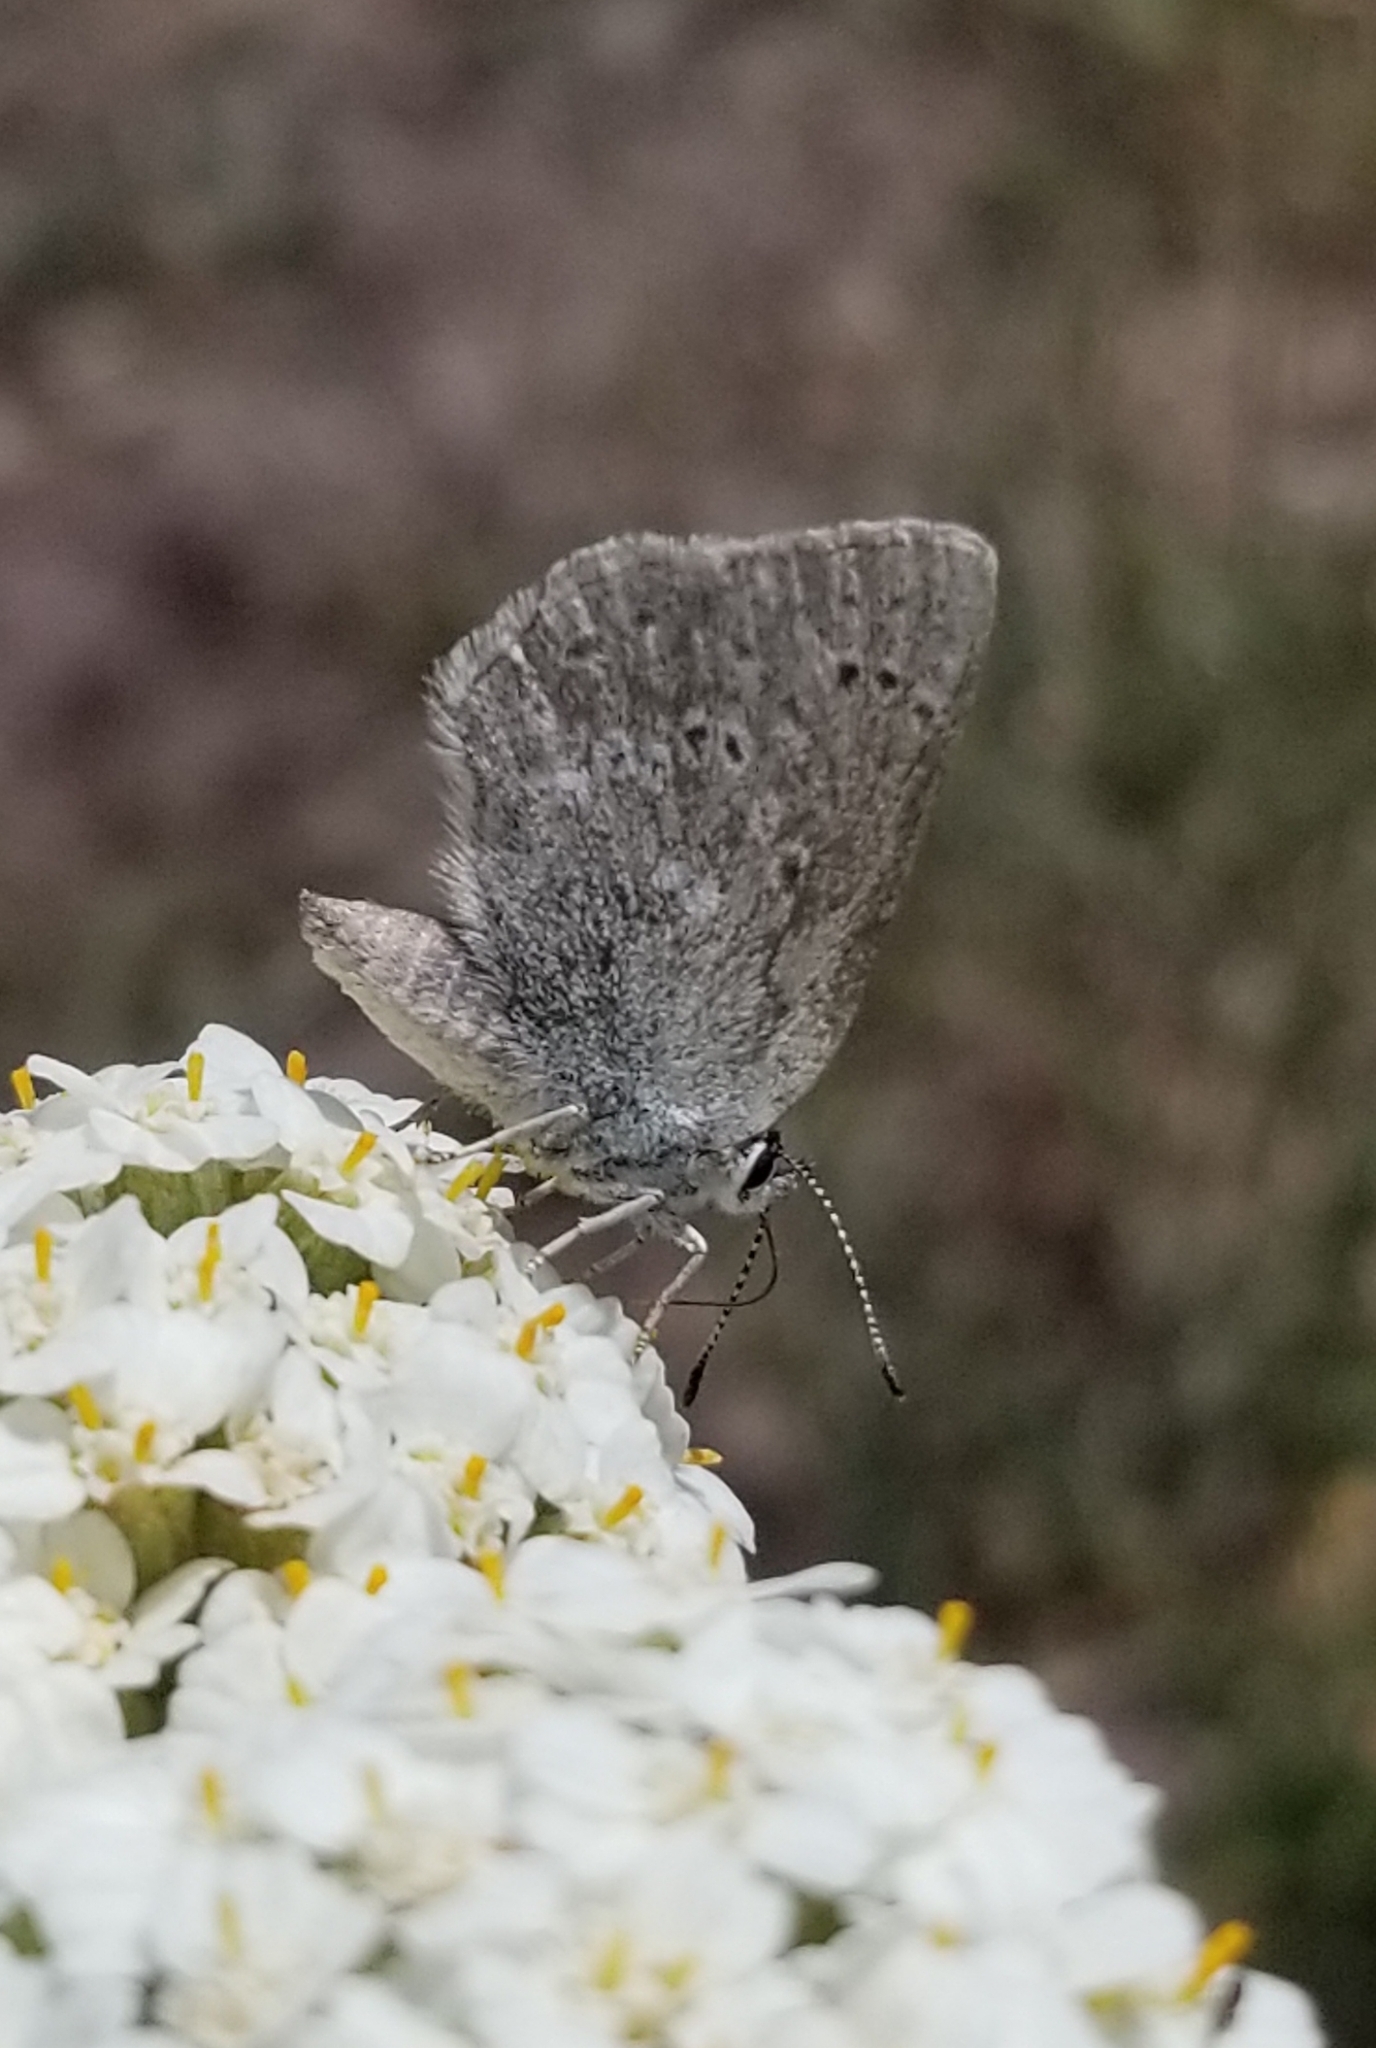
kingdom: Animalia
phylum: Arthropoda
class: Insecta
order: Lepidoptera
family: Lycaenidae
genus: Satyrium
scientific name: Satyrium fuliginosa
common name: Western sooty hairstreak
